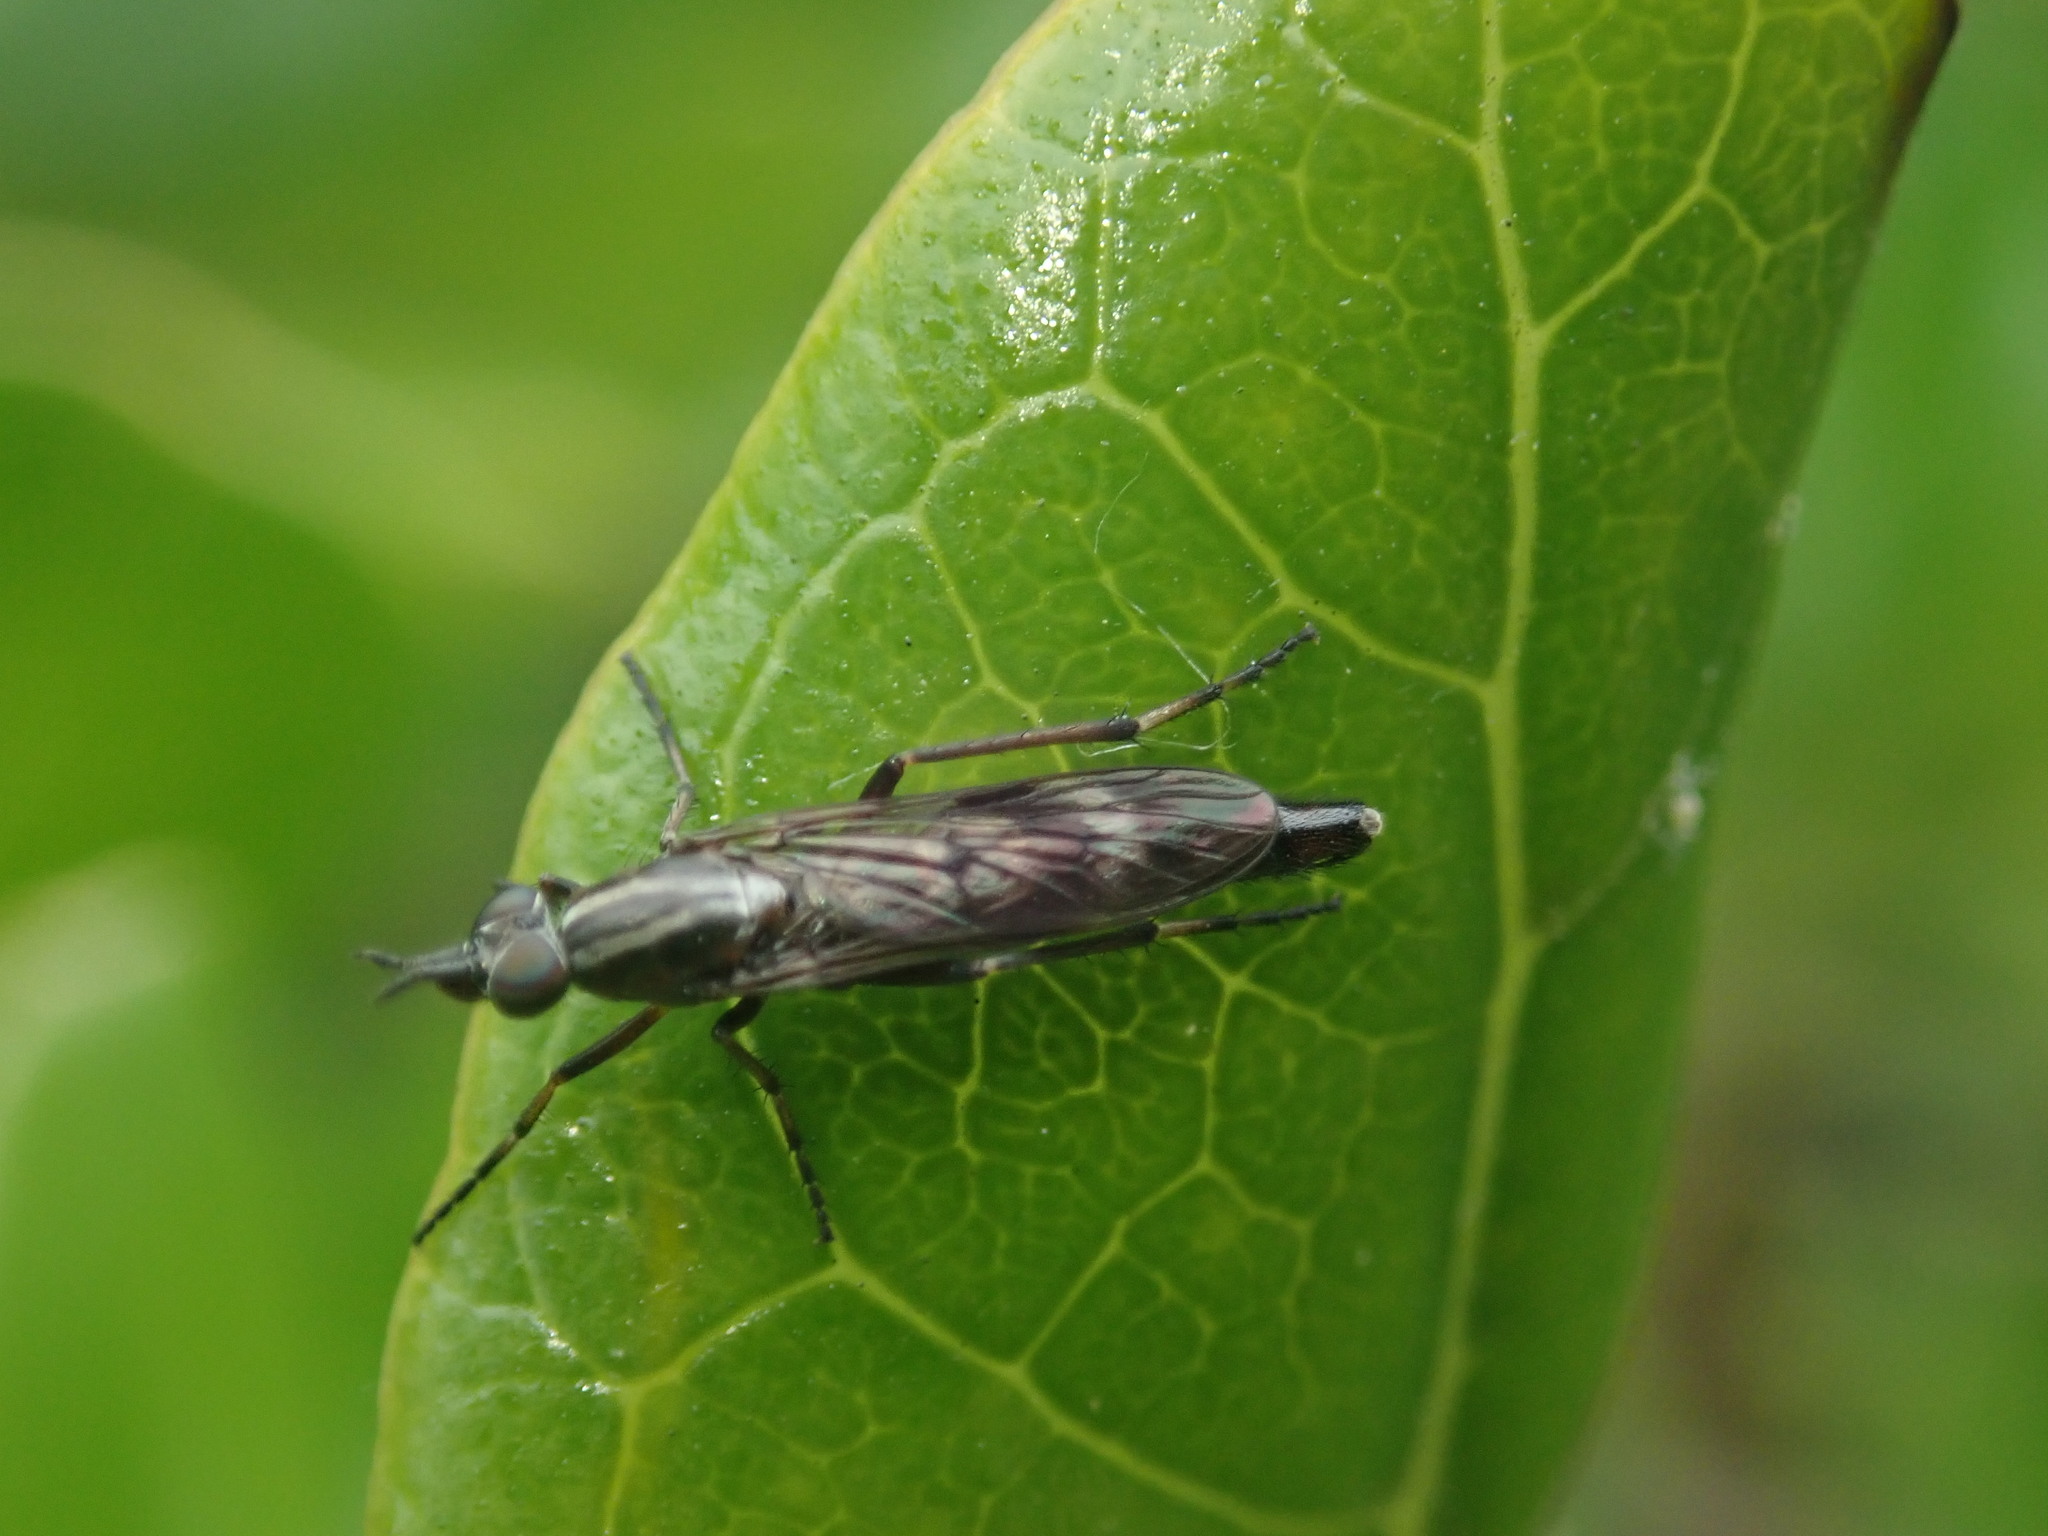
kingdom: Animalia
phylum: Arthropoda
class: Insecta
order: Diptera
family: Therevidae
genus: Anabarhynchus
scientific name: Anabarhynchus cupreus
